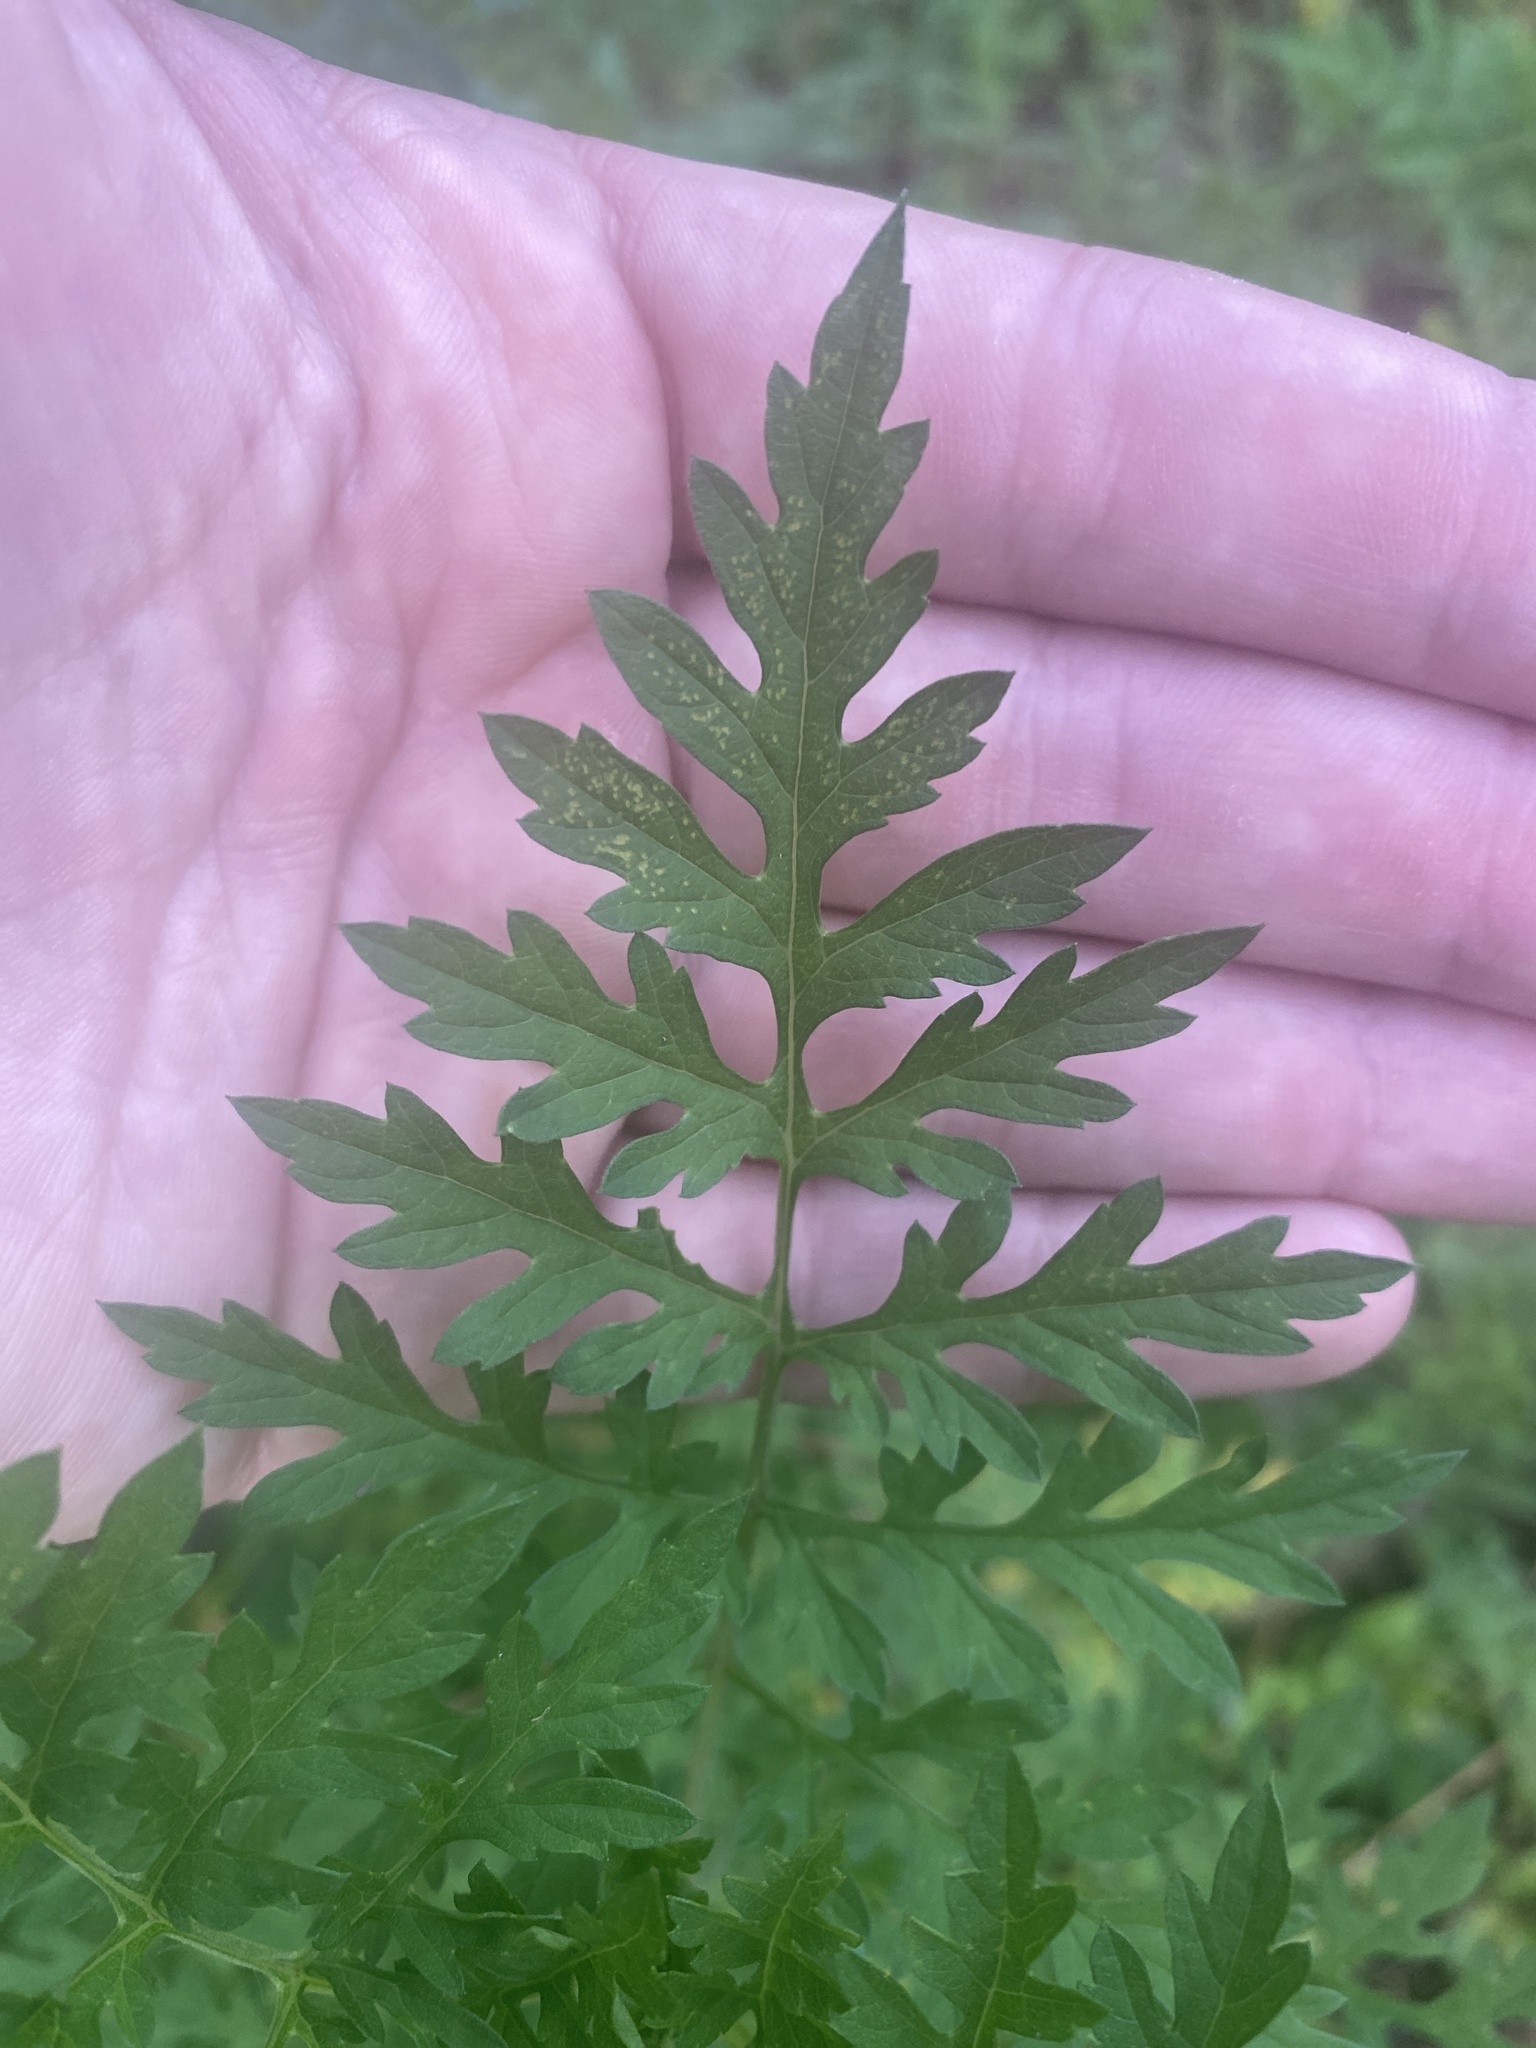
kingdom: Plantae
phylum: Tracheophyta
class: Magnoliopsida
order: Asterales
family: Asteraceae
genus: Ambrosia
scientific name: Ambrosia artemisiifolia
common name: Annual ragweed
